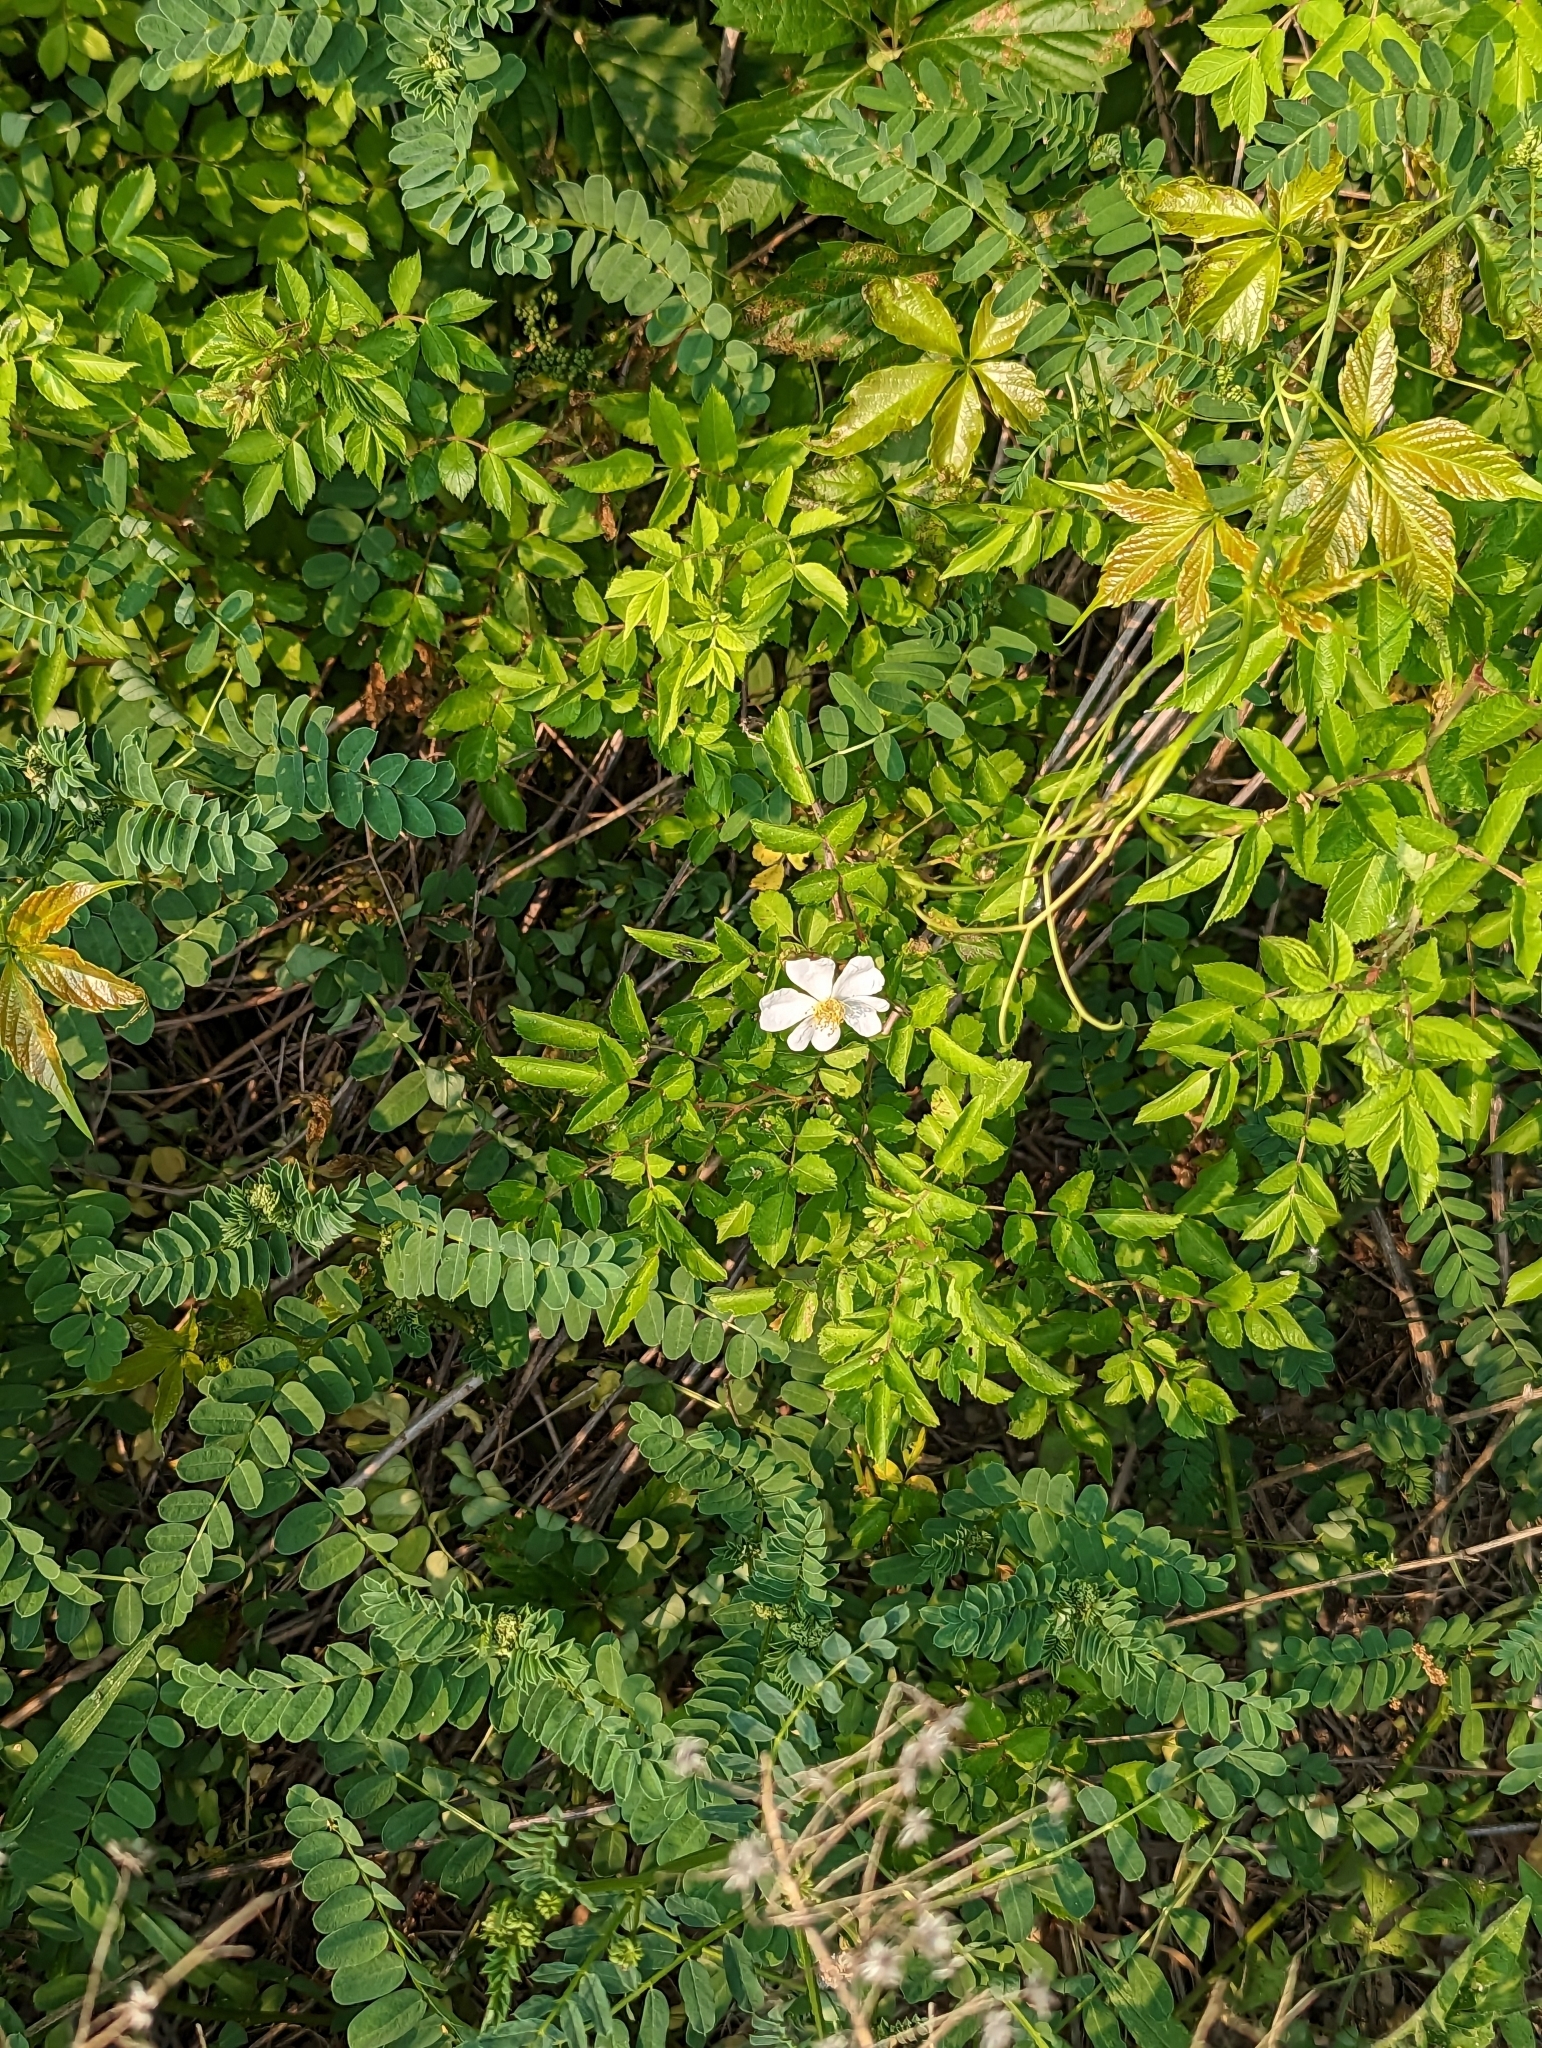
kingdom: Plantae
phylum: Tracheophyta
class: Magnoliopsida
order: Rosales
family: Rosaceae
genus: Rosa
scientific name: Rosa multiflora
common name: Multiflora rose
